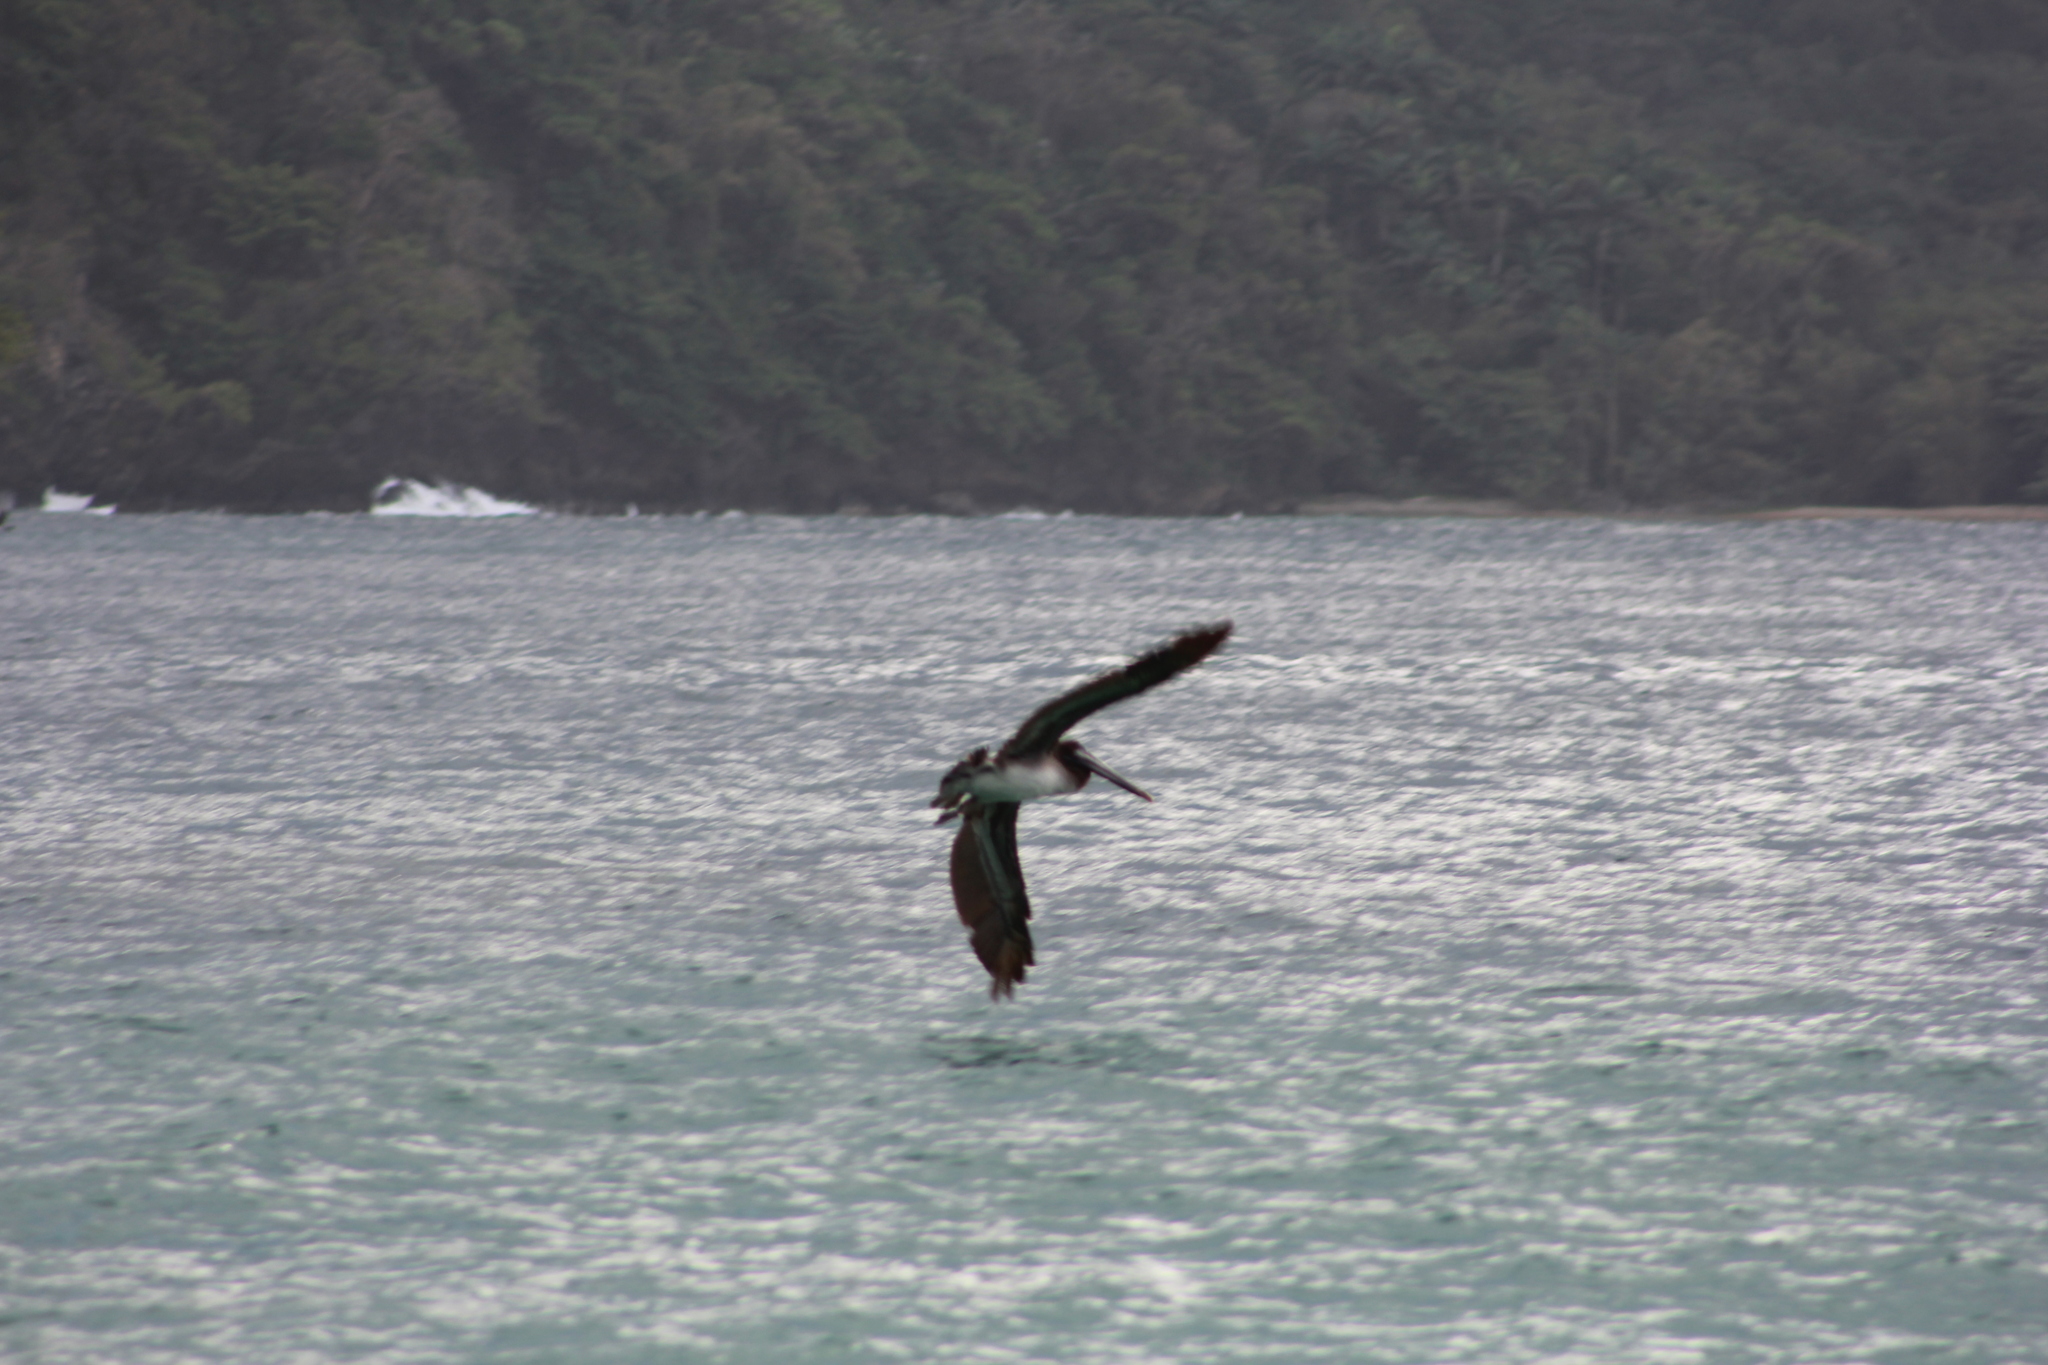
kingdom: Animalia
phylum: Chordata
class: Aves
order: Pelecaniformes
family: Pelecanidae
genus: Pelecanus
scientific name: Pelecanus occidentalis
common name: Brown pelican
